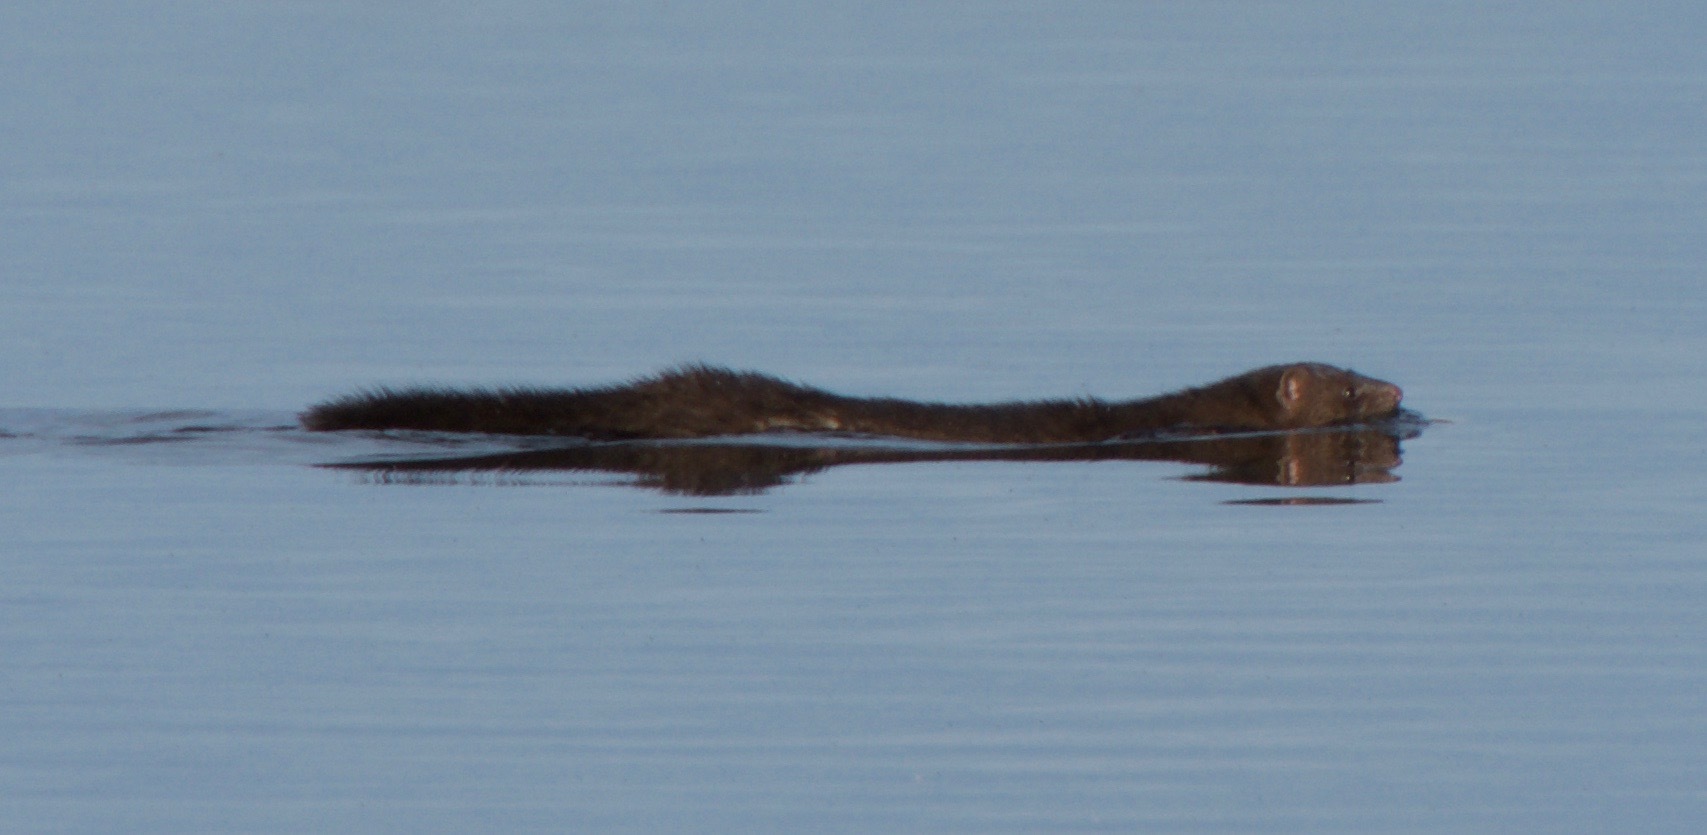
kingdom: Animalia
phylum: Chordata
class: Mammalia
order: Carnivora
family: Mustelidae
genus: Mustela
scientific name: Mustela
